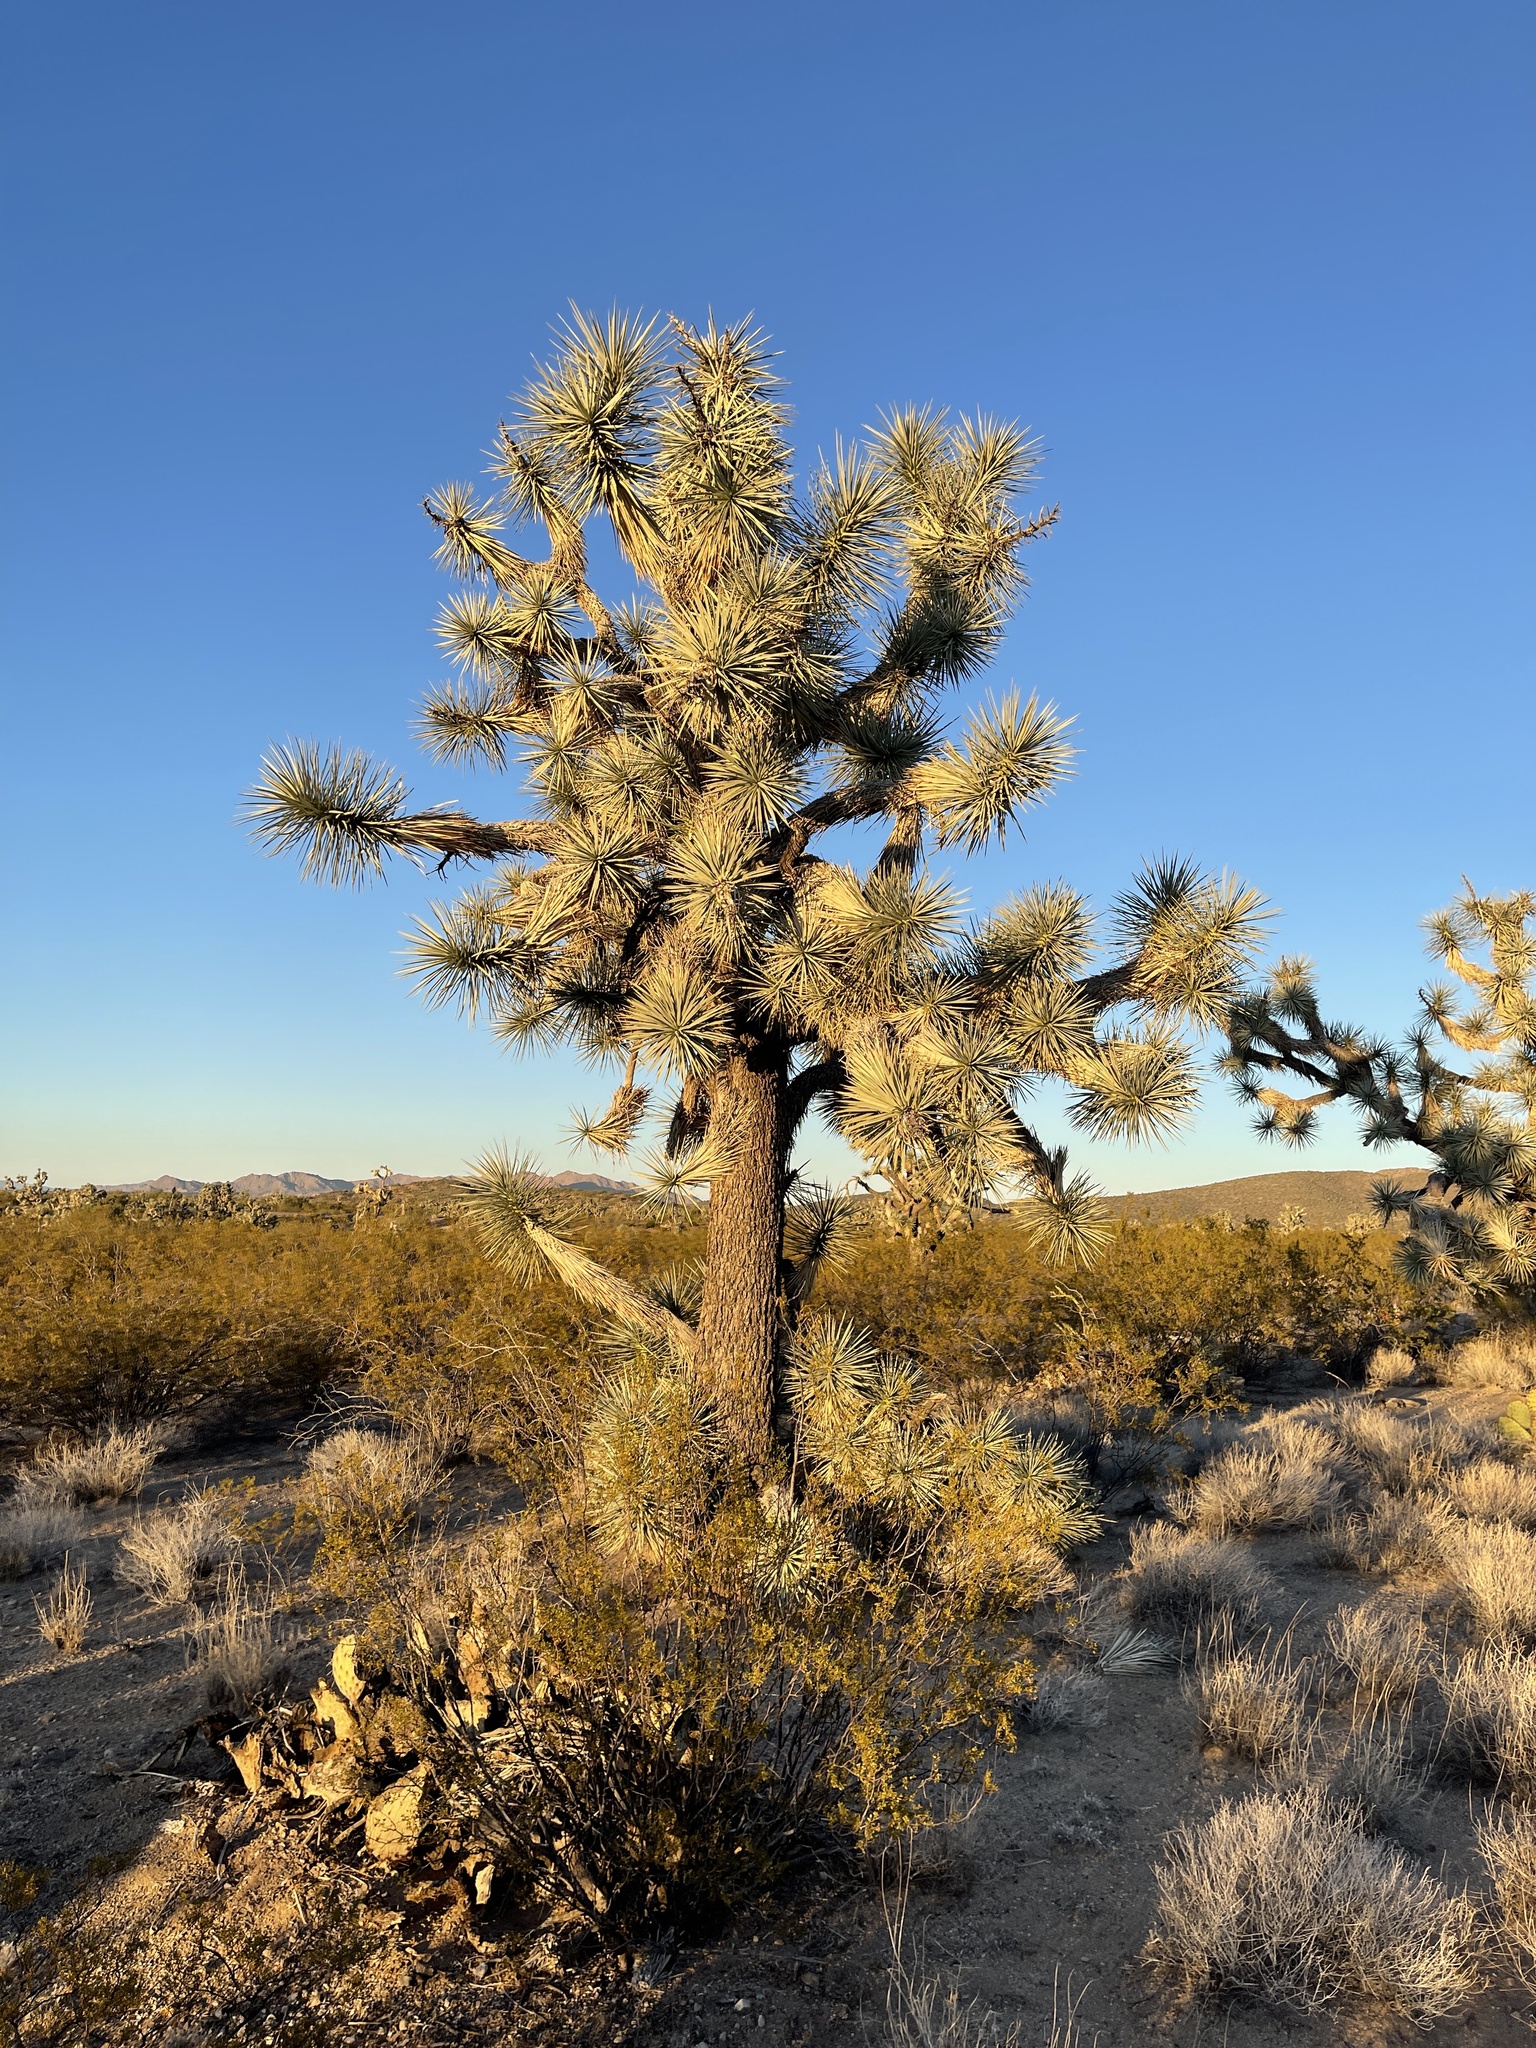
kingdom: Plantae
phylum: Tracheophyta
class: Liliopsida
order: Asparagales
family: Asparagaceae
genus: Yucca
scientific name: Yucca brevifolia
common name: Joshua tree
